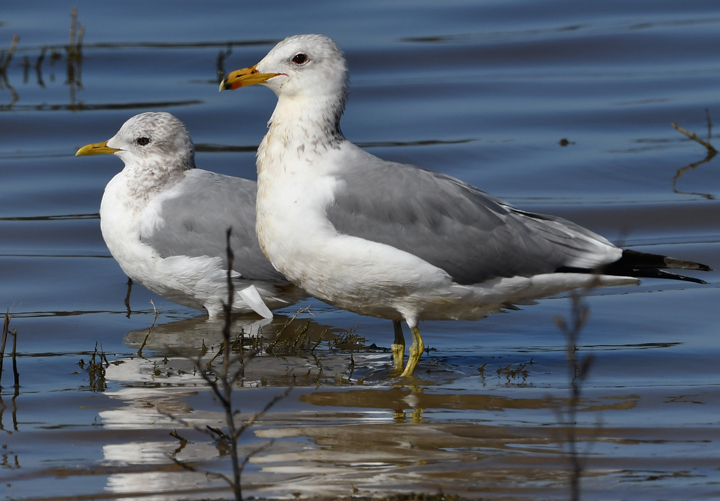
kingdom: Animalia
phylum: Chordata
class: Aves
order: Charadriiformes
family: Laridae
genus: Larus
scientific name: Larus brachyrhynchus
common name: Short-billed gull
